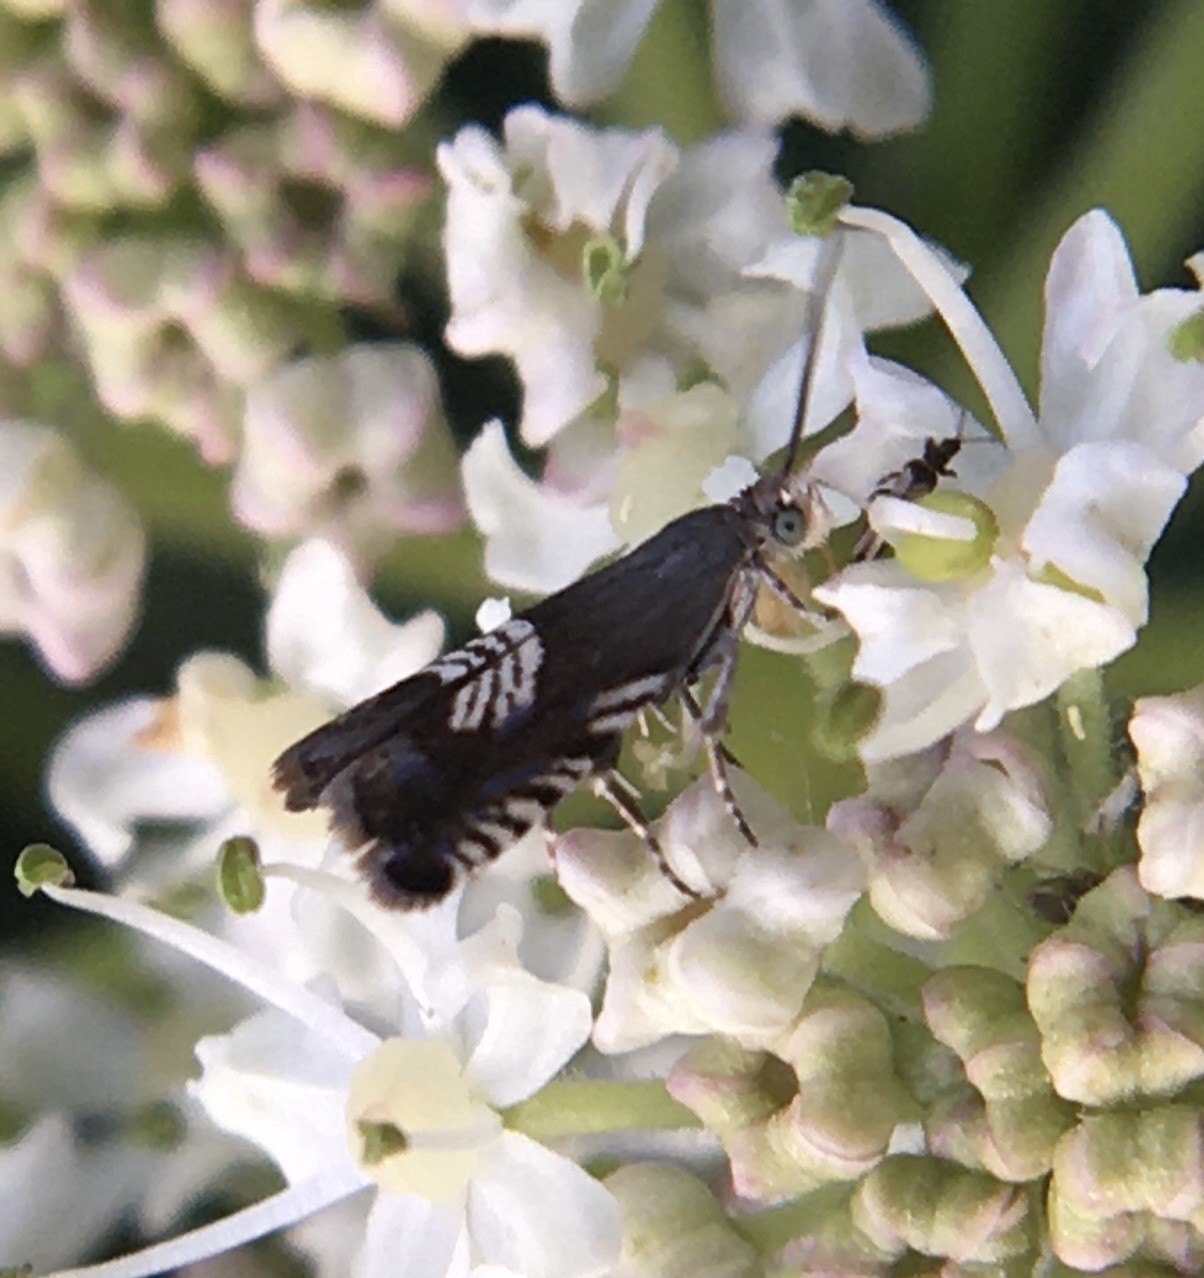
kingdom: Animalia
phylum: Arthropoda
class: Insecta
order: Lepidoptera
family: Tortricidae
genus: Grapholita
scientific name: Grapholita compositella
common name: Triple-stripe piercer
